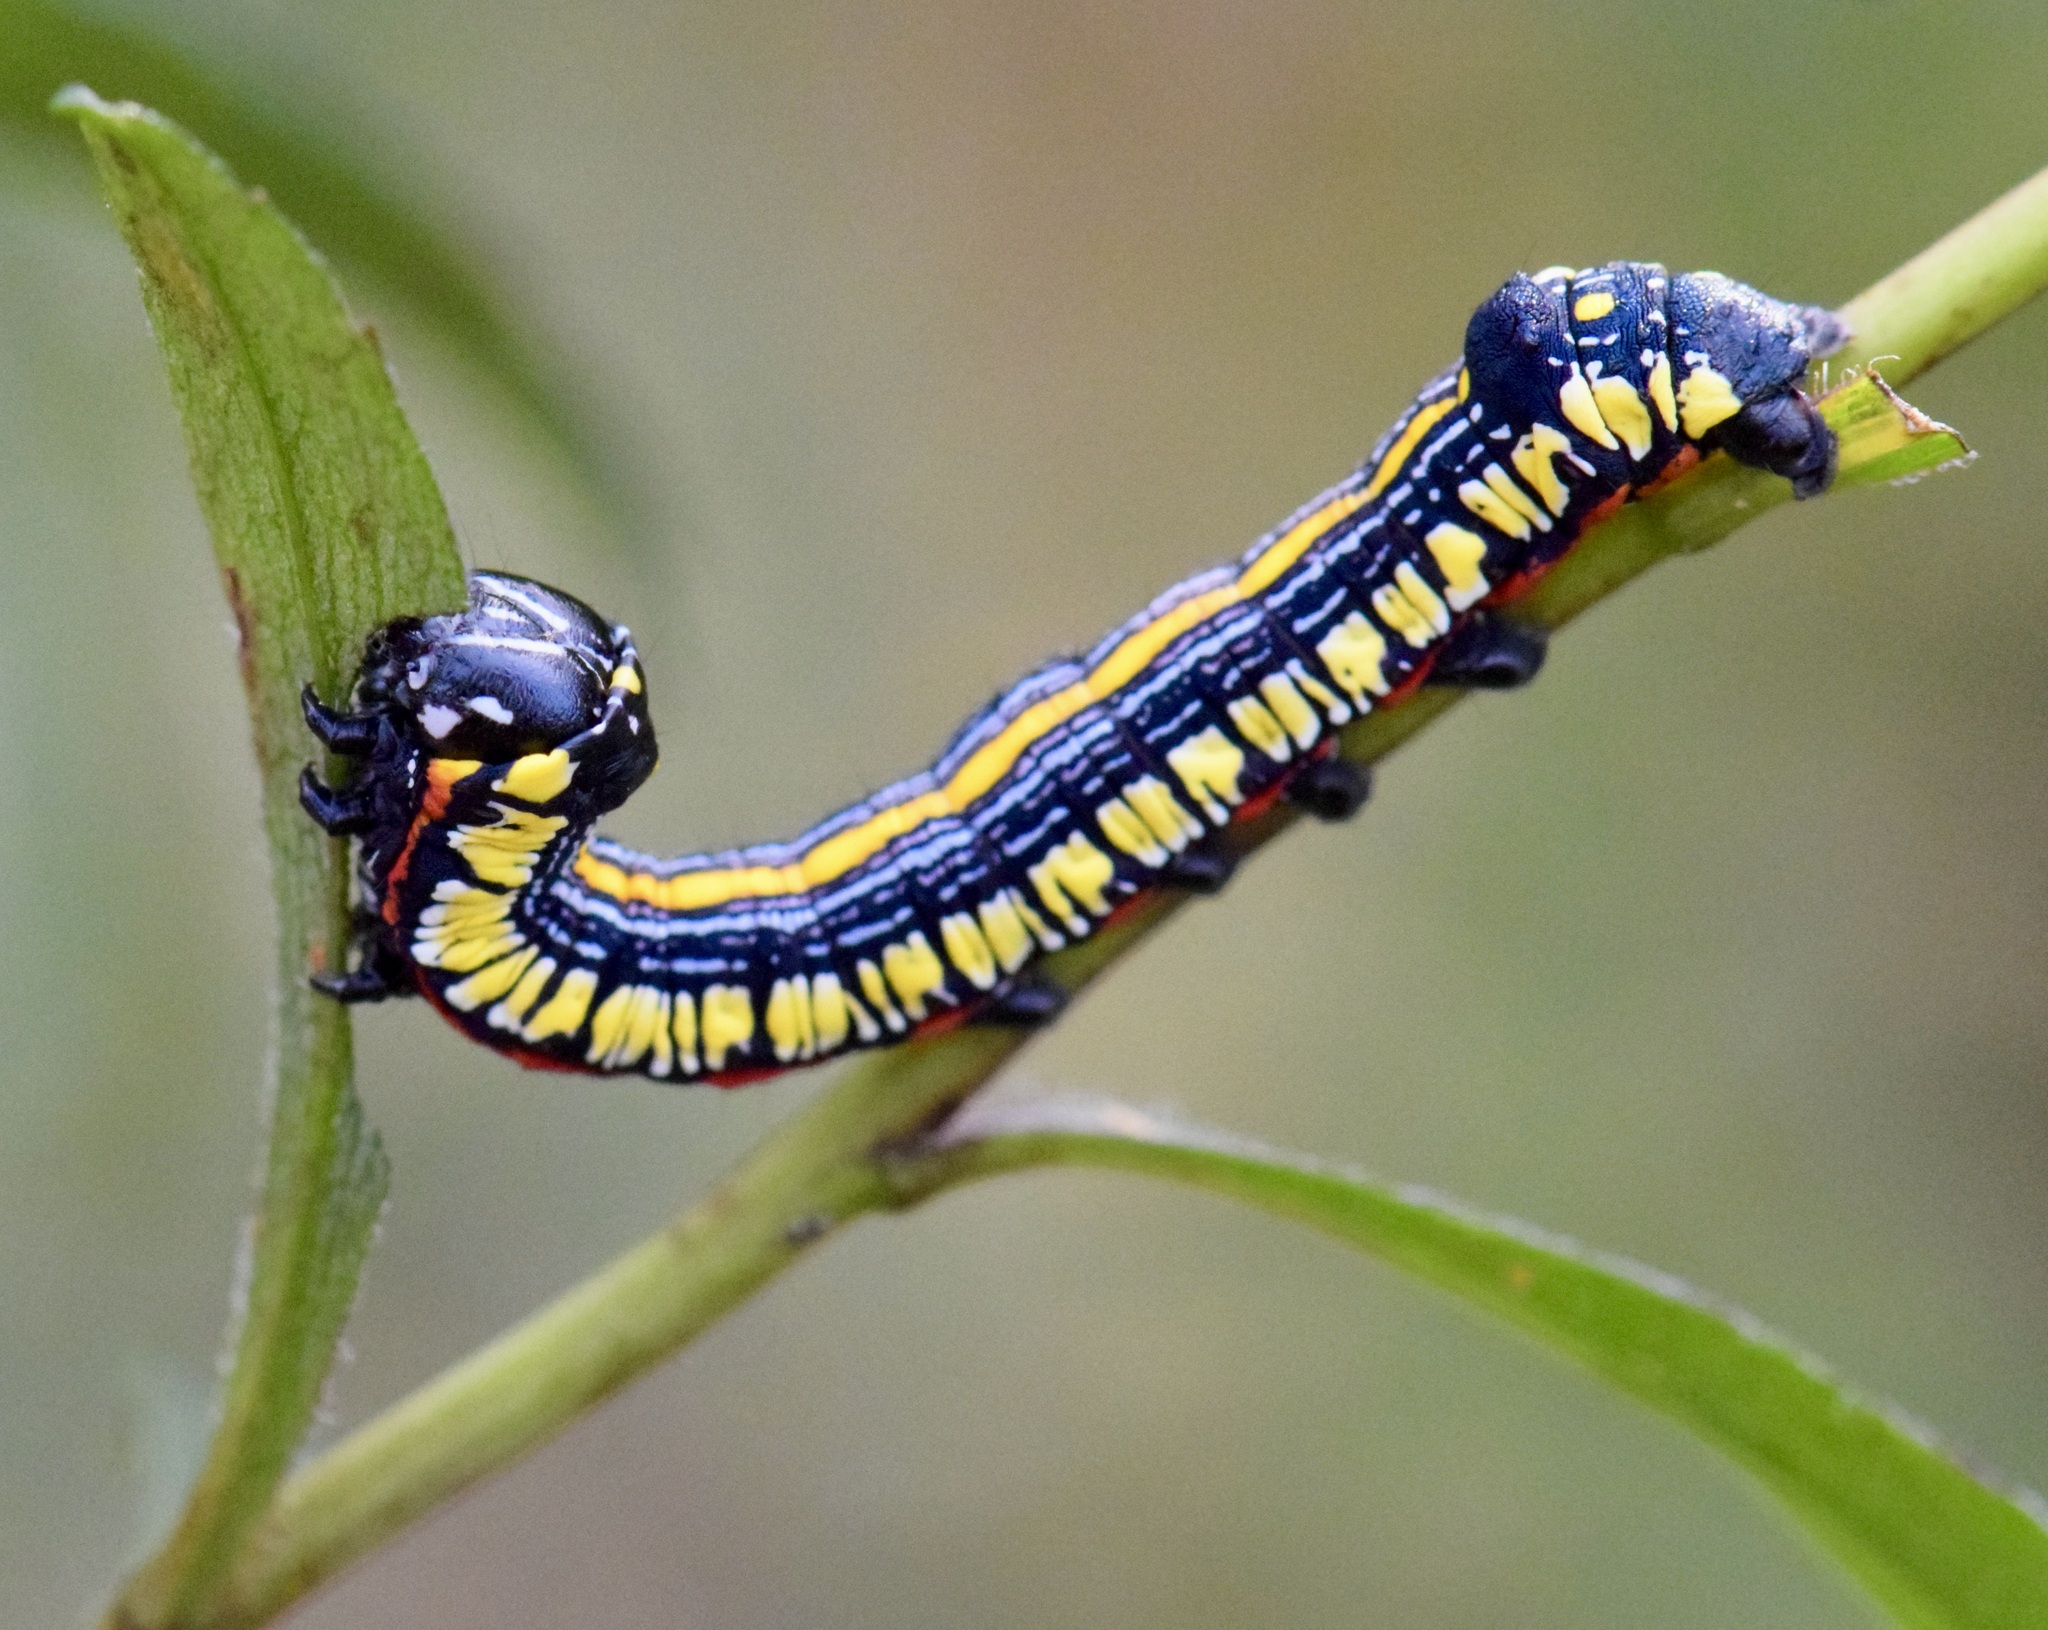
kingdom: Animalia
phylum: Arthropoda
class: Insecta
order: Lepidoptera
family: Noctuidae
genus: Cucullia
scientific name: Cucullia convexipennis
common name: Brown-hooded owlet
